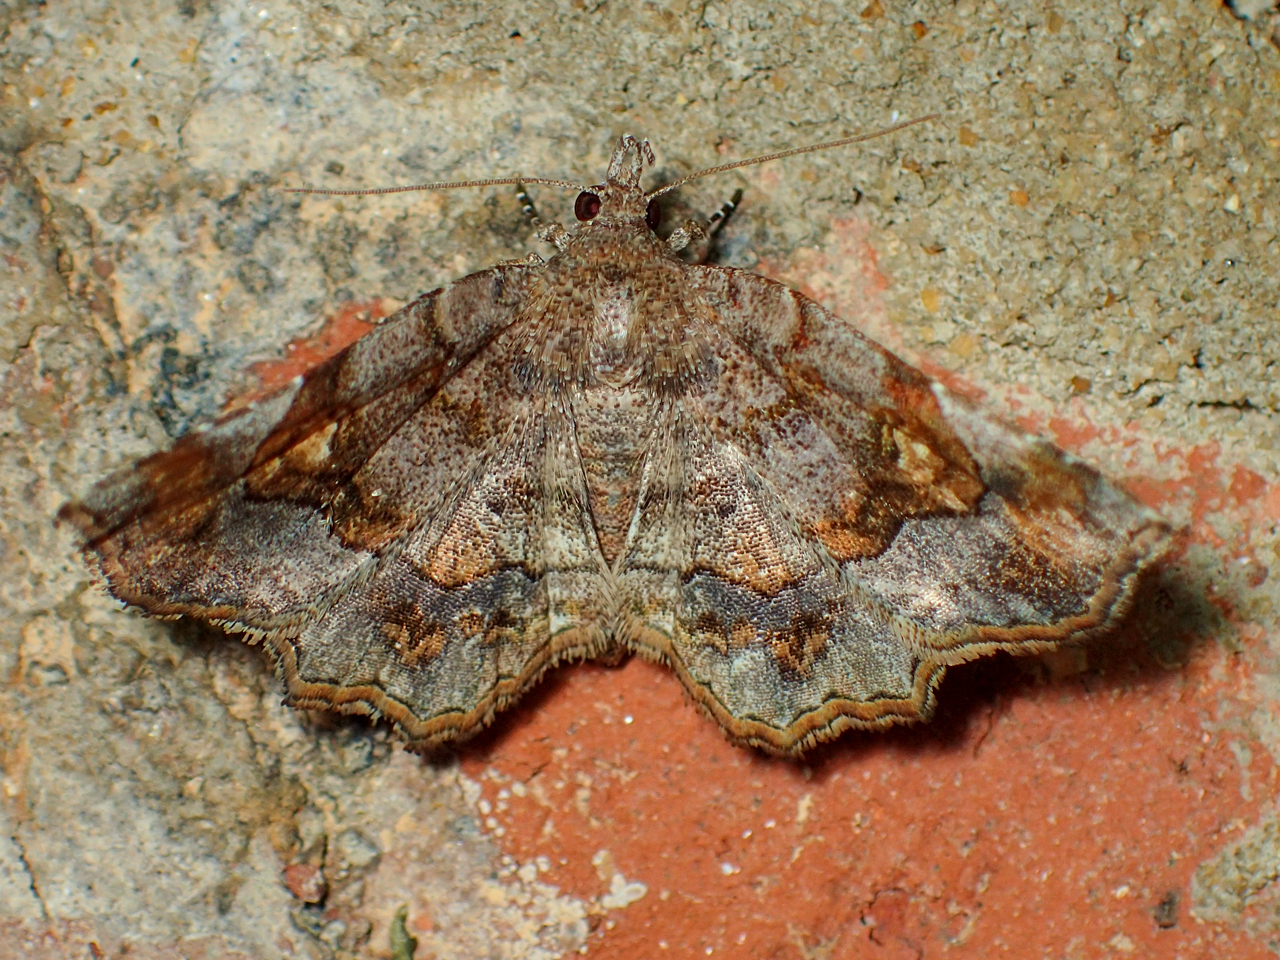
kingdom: Animalia
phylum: Arthropoda
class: Insecta
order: Lepidoptera
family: Erebidae
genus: Pangrapta
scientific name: Pangrapta decoralis
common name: Decorated owlet
